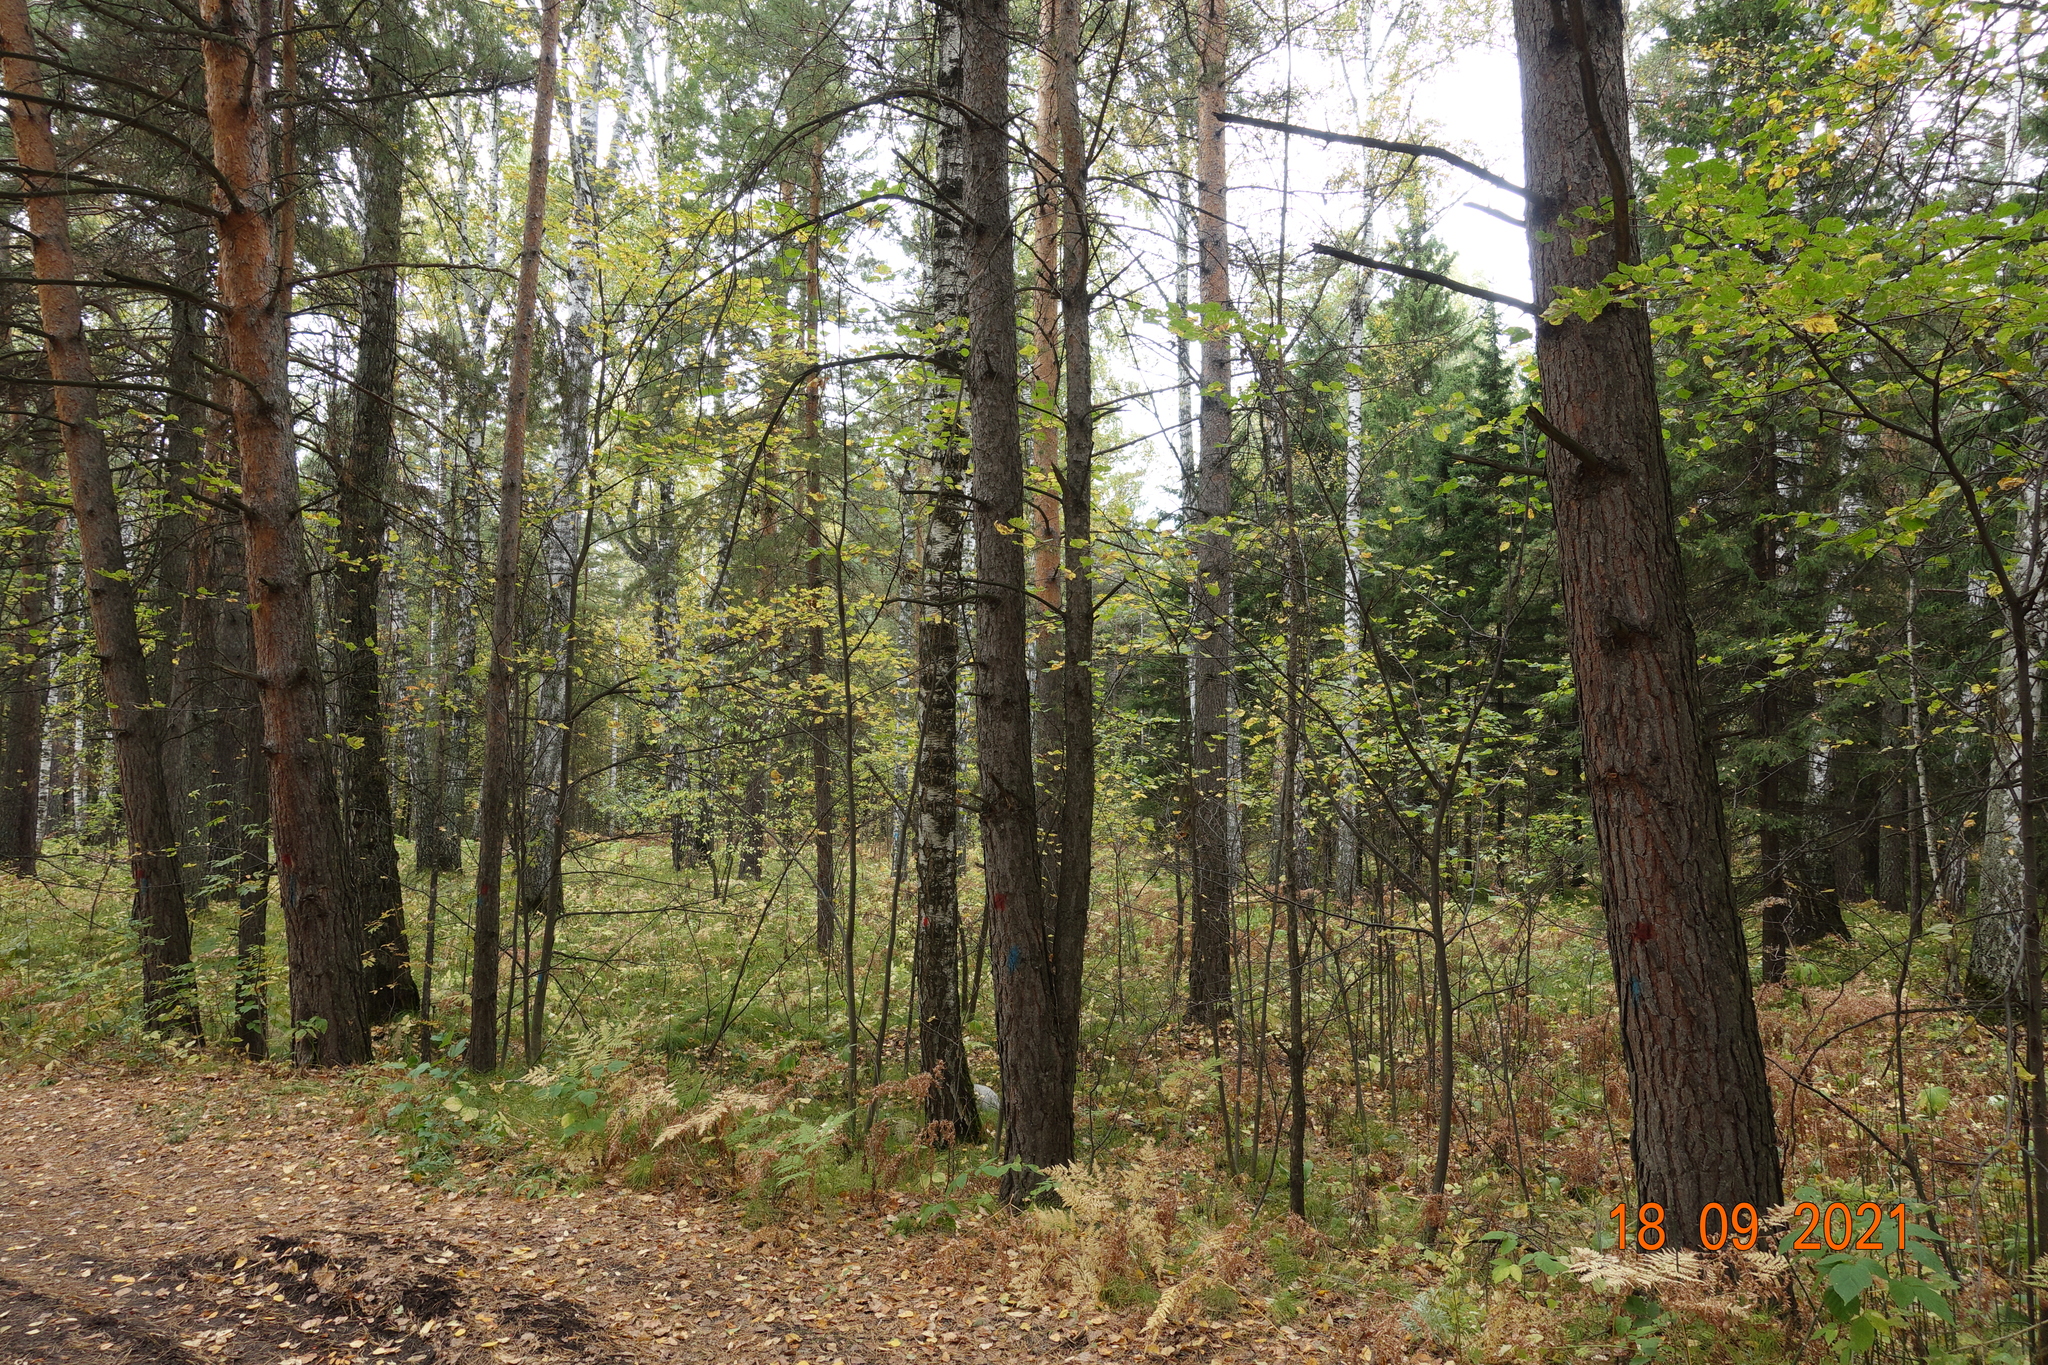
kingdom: Plantae
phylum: Tracheophyta
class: Pinopsida
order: Pinales
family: Pinaceae
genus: Pinus
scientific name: Pinus sylvestris
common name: Scots pine
